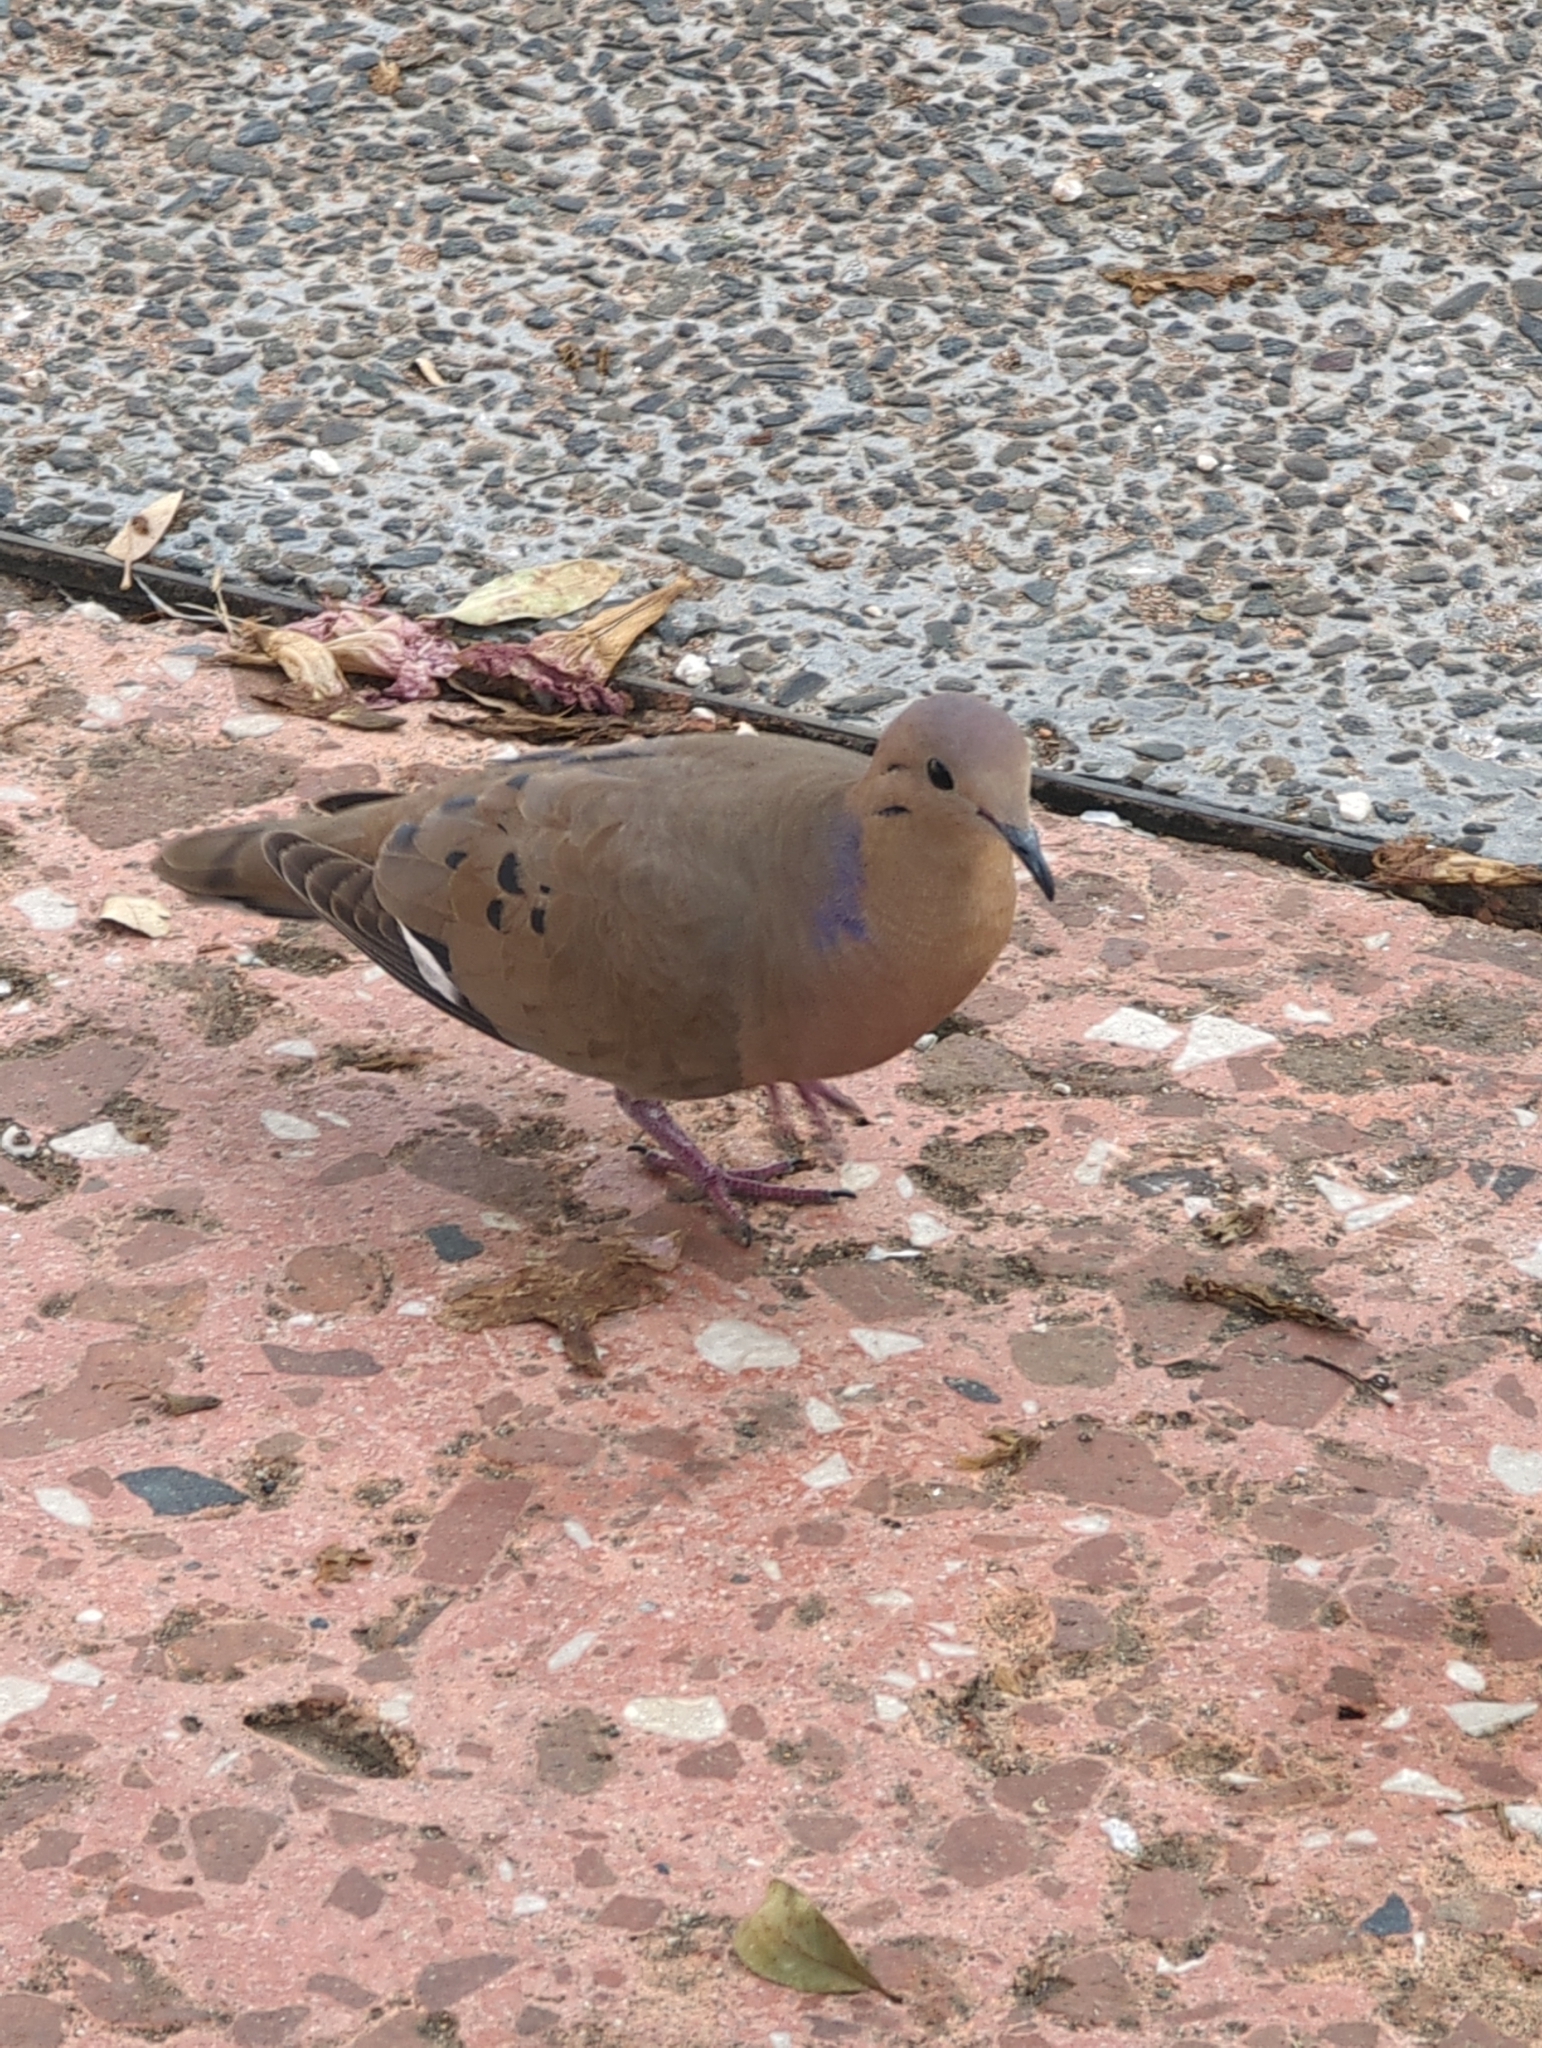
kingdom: Animalia
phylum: Chordata
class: Aves
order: Columbiformes
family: Columbidae
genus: Zenaida
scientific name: Zenaida aurita
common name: Zenaida dove
